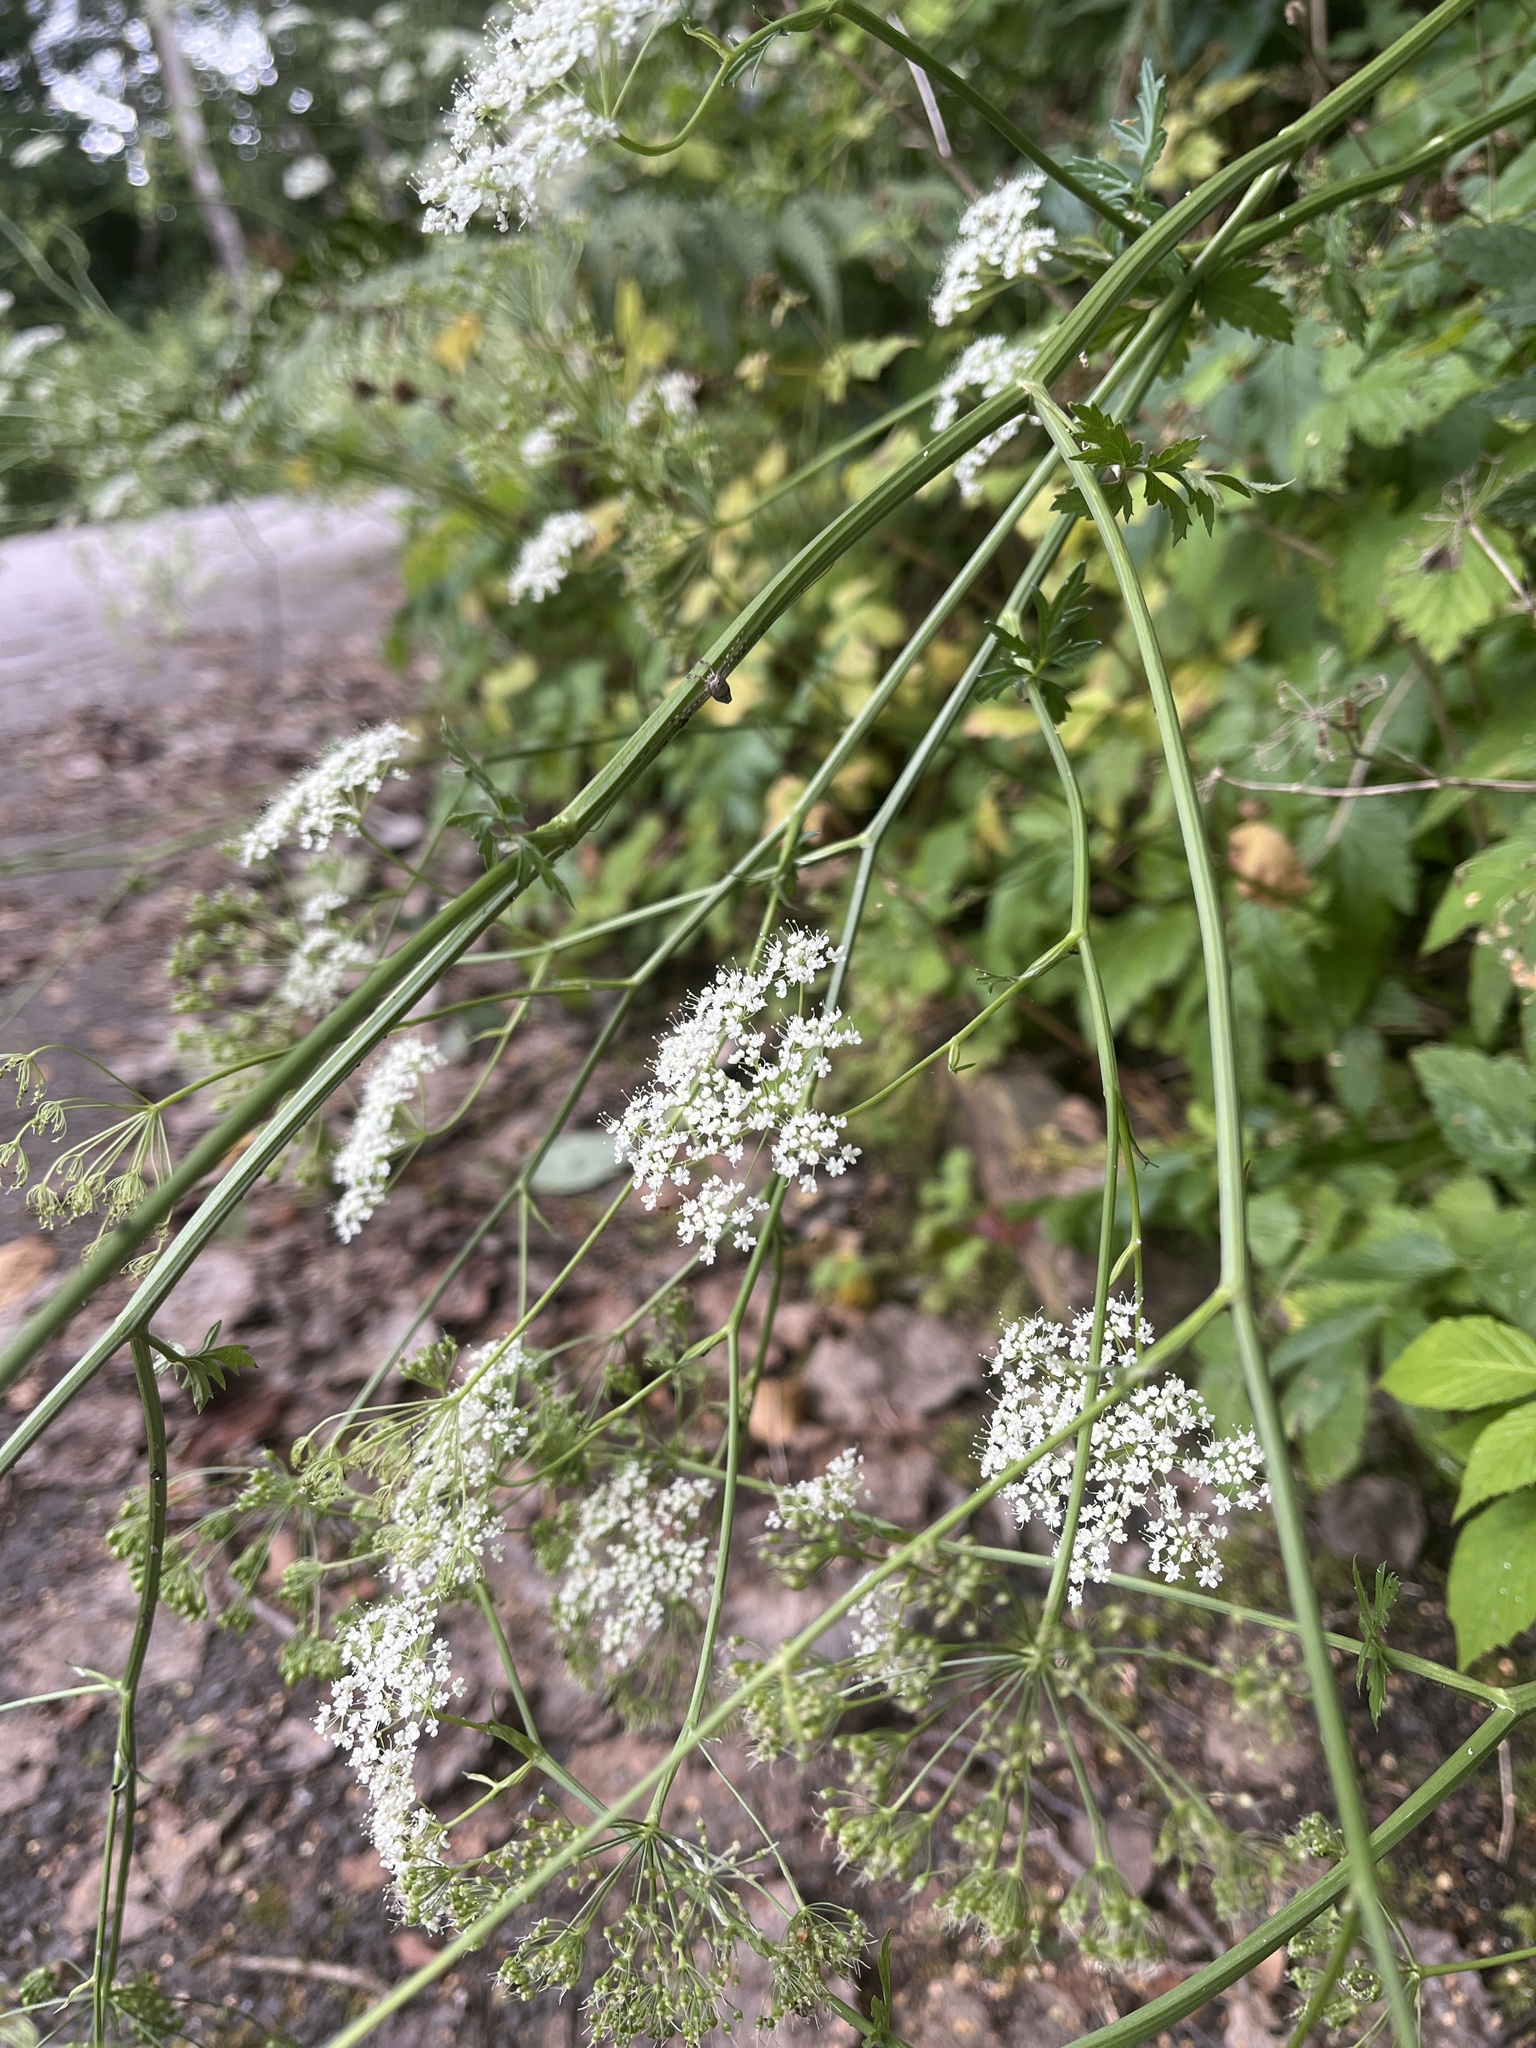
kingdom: Plantae
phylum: Tracheophyta
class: Magnoliopsida
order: Apiales
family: Apiaceae
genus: Pimpinella
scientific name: Pimpinella major
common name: Greater burnet-saxifrage
